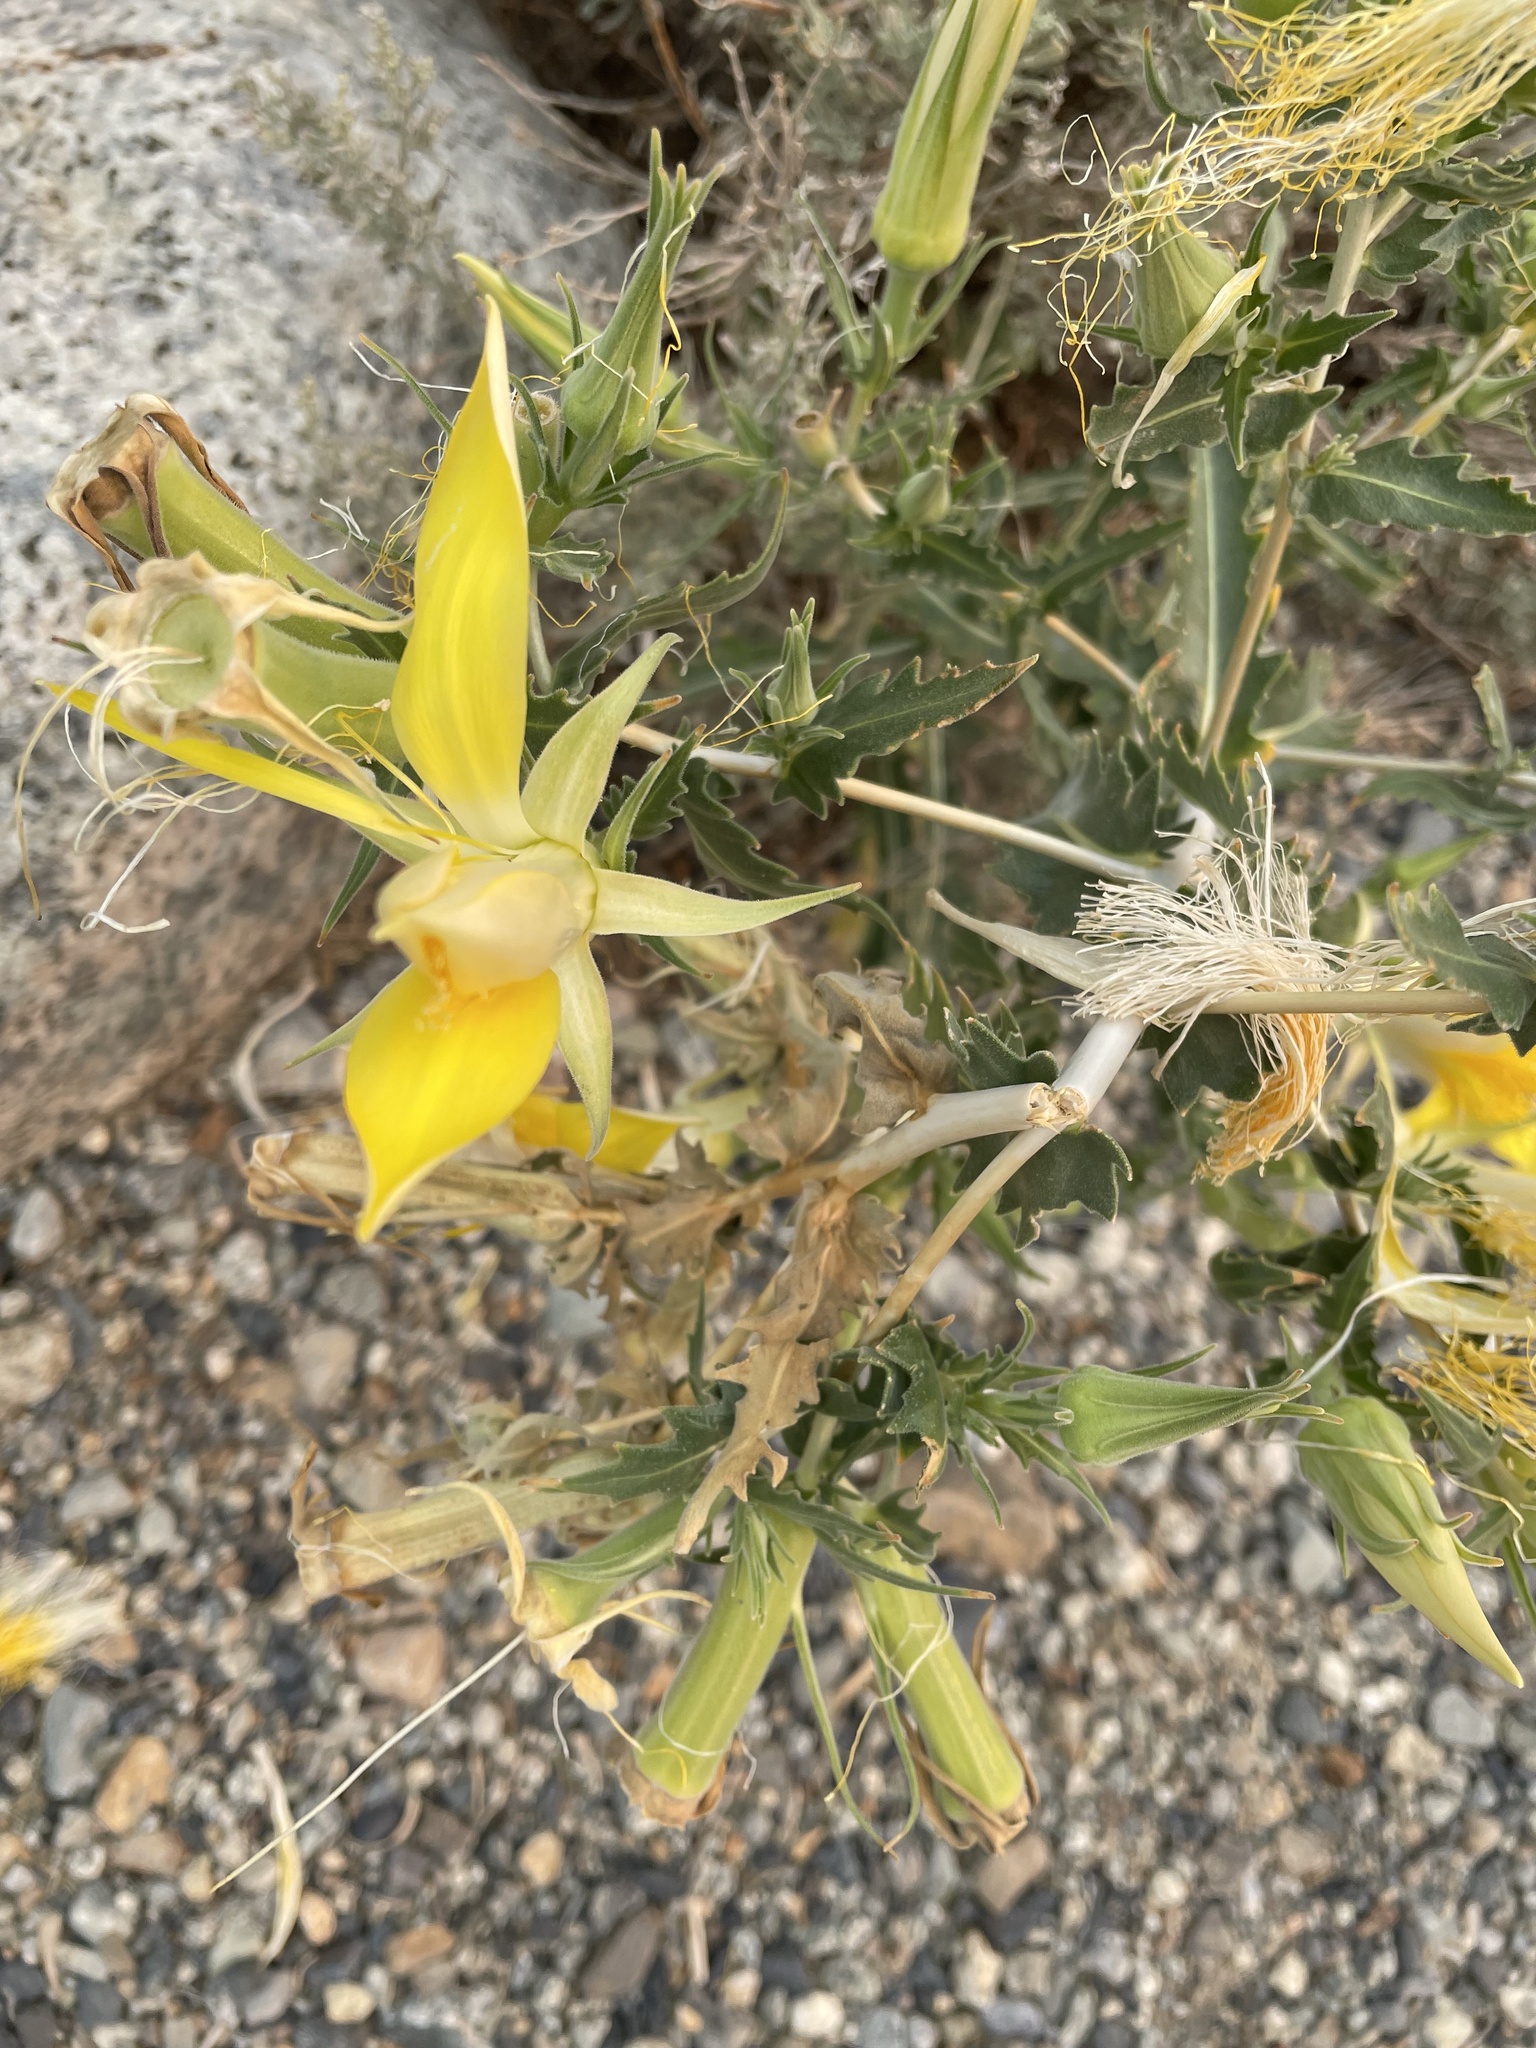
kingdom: Plantae
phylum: Tracheophyta
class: Magnoliopsida
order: Cornales
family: Loasaceae
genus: Mentzelia
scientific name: Mentzelia laevicaulis
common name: Smooth-stem blazingstar
